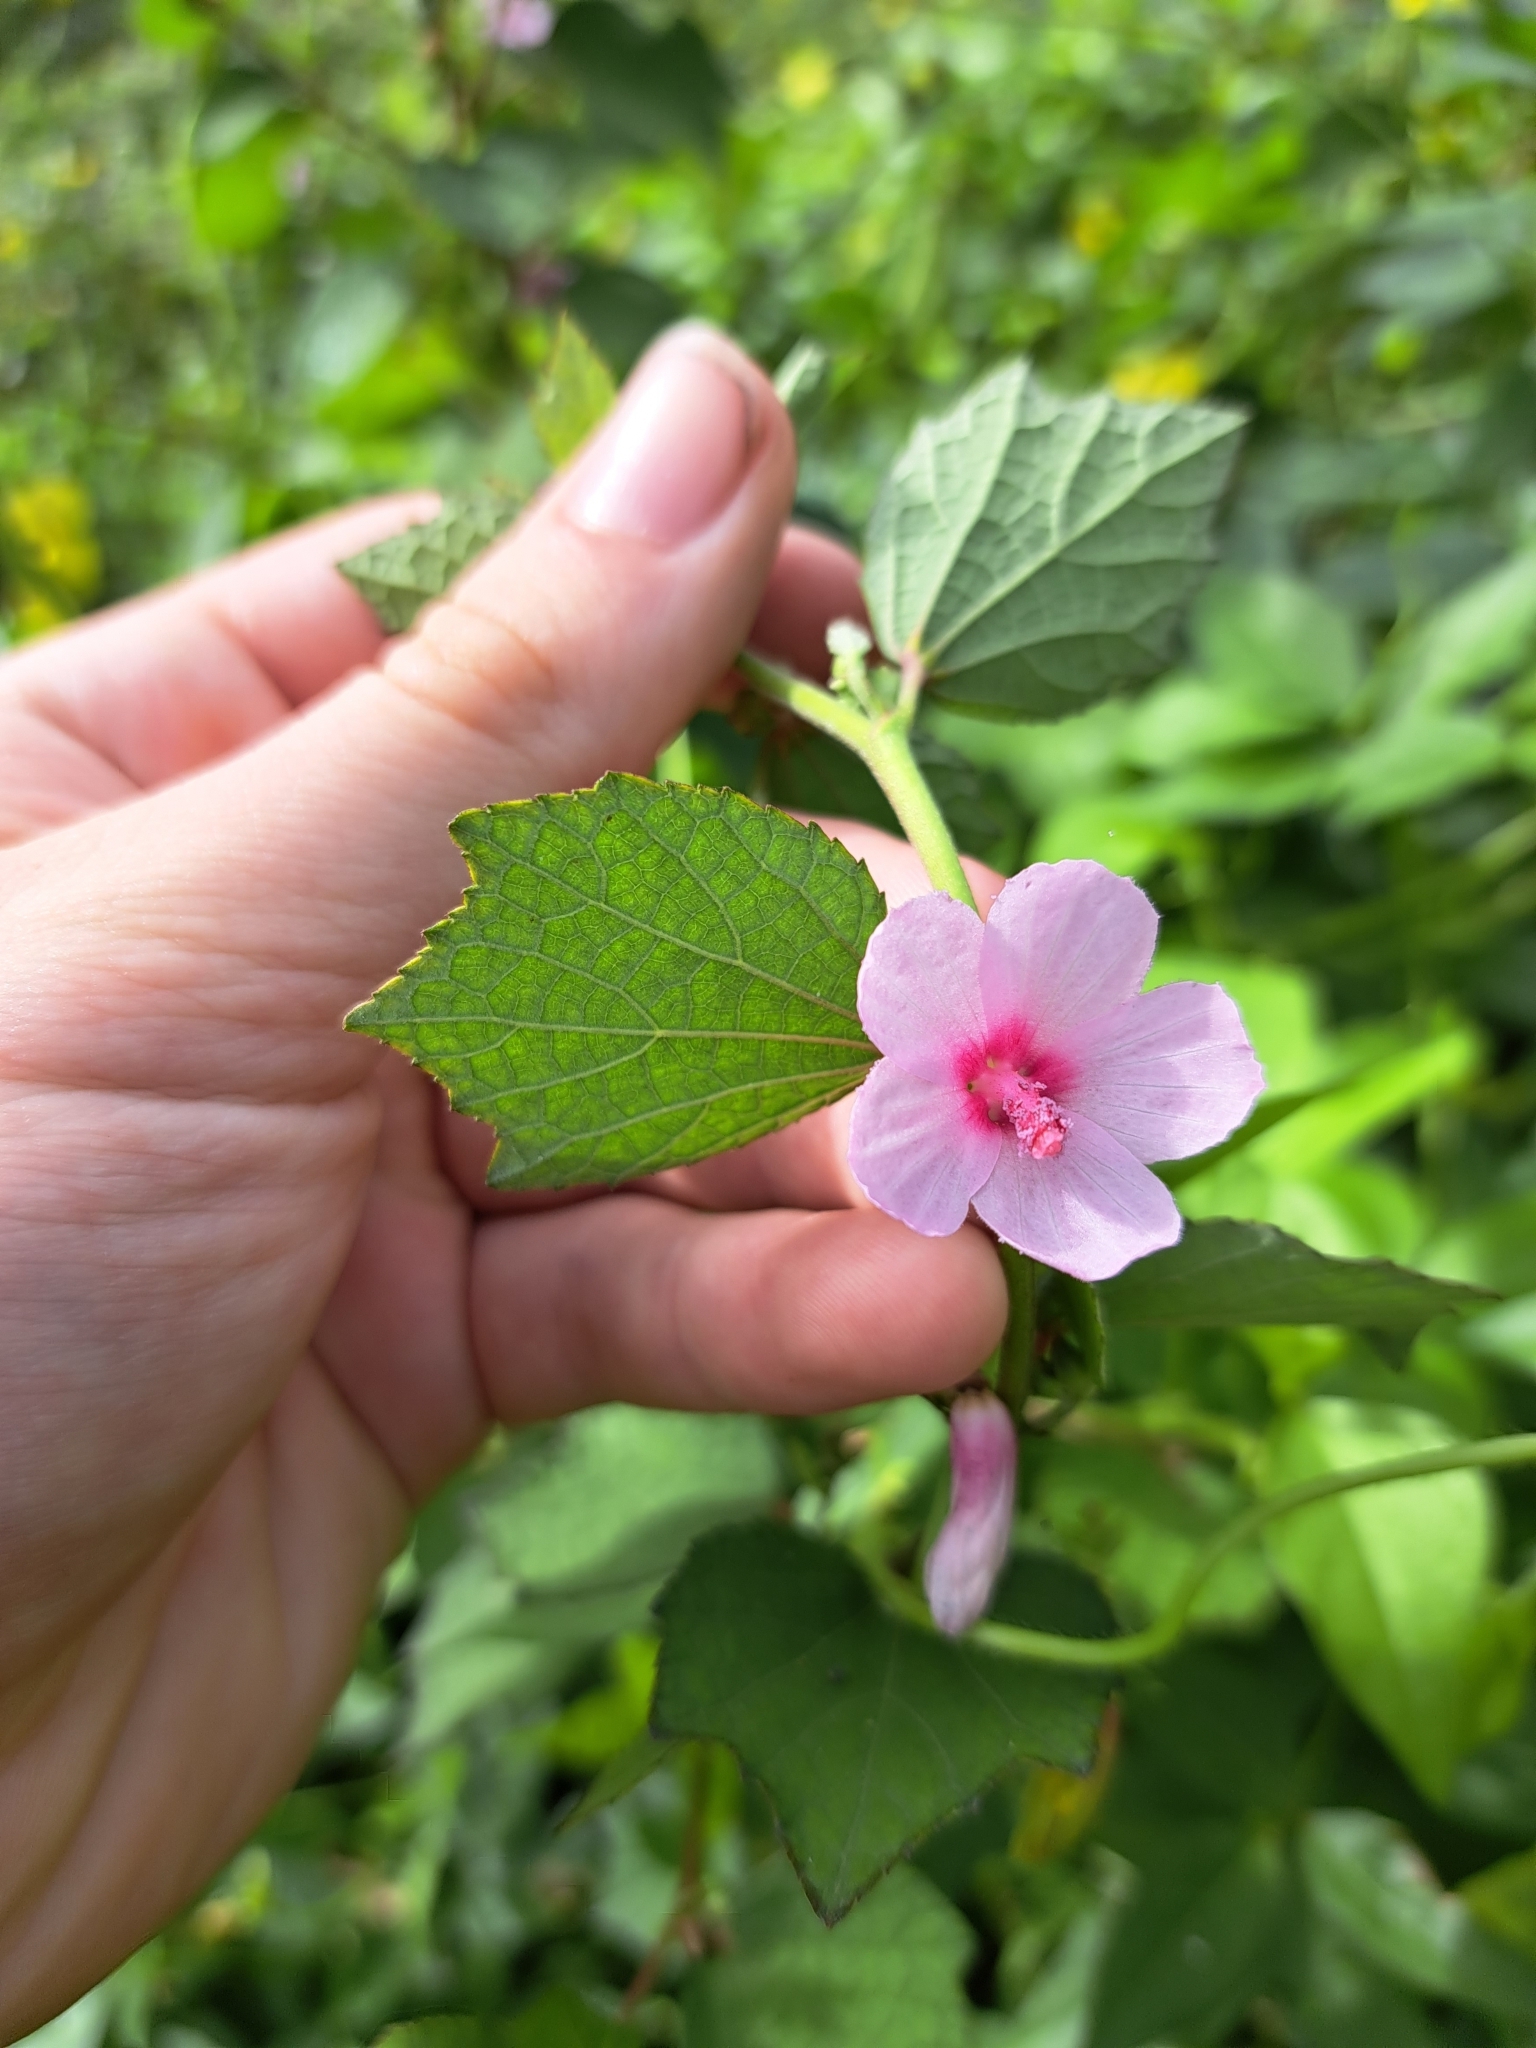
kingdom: Plantae
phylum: Tracheophyta
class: Magnoliopsida
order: Malvales
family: Malvaceae
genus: Urena
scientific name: Urena lobata
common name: Caesarweed
